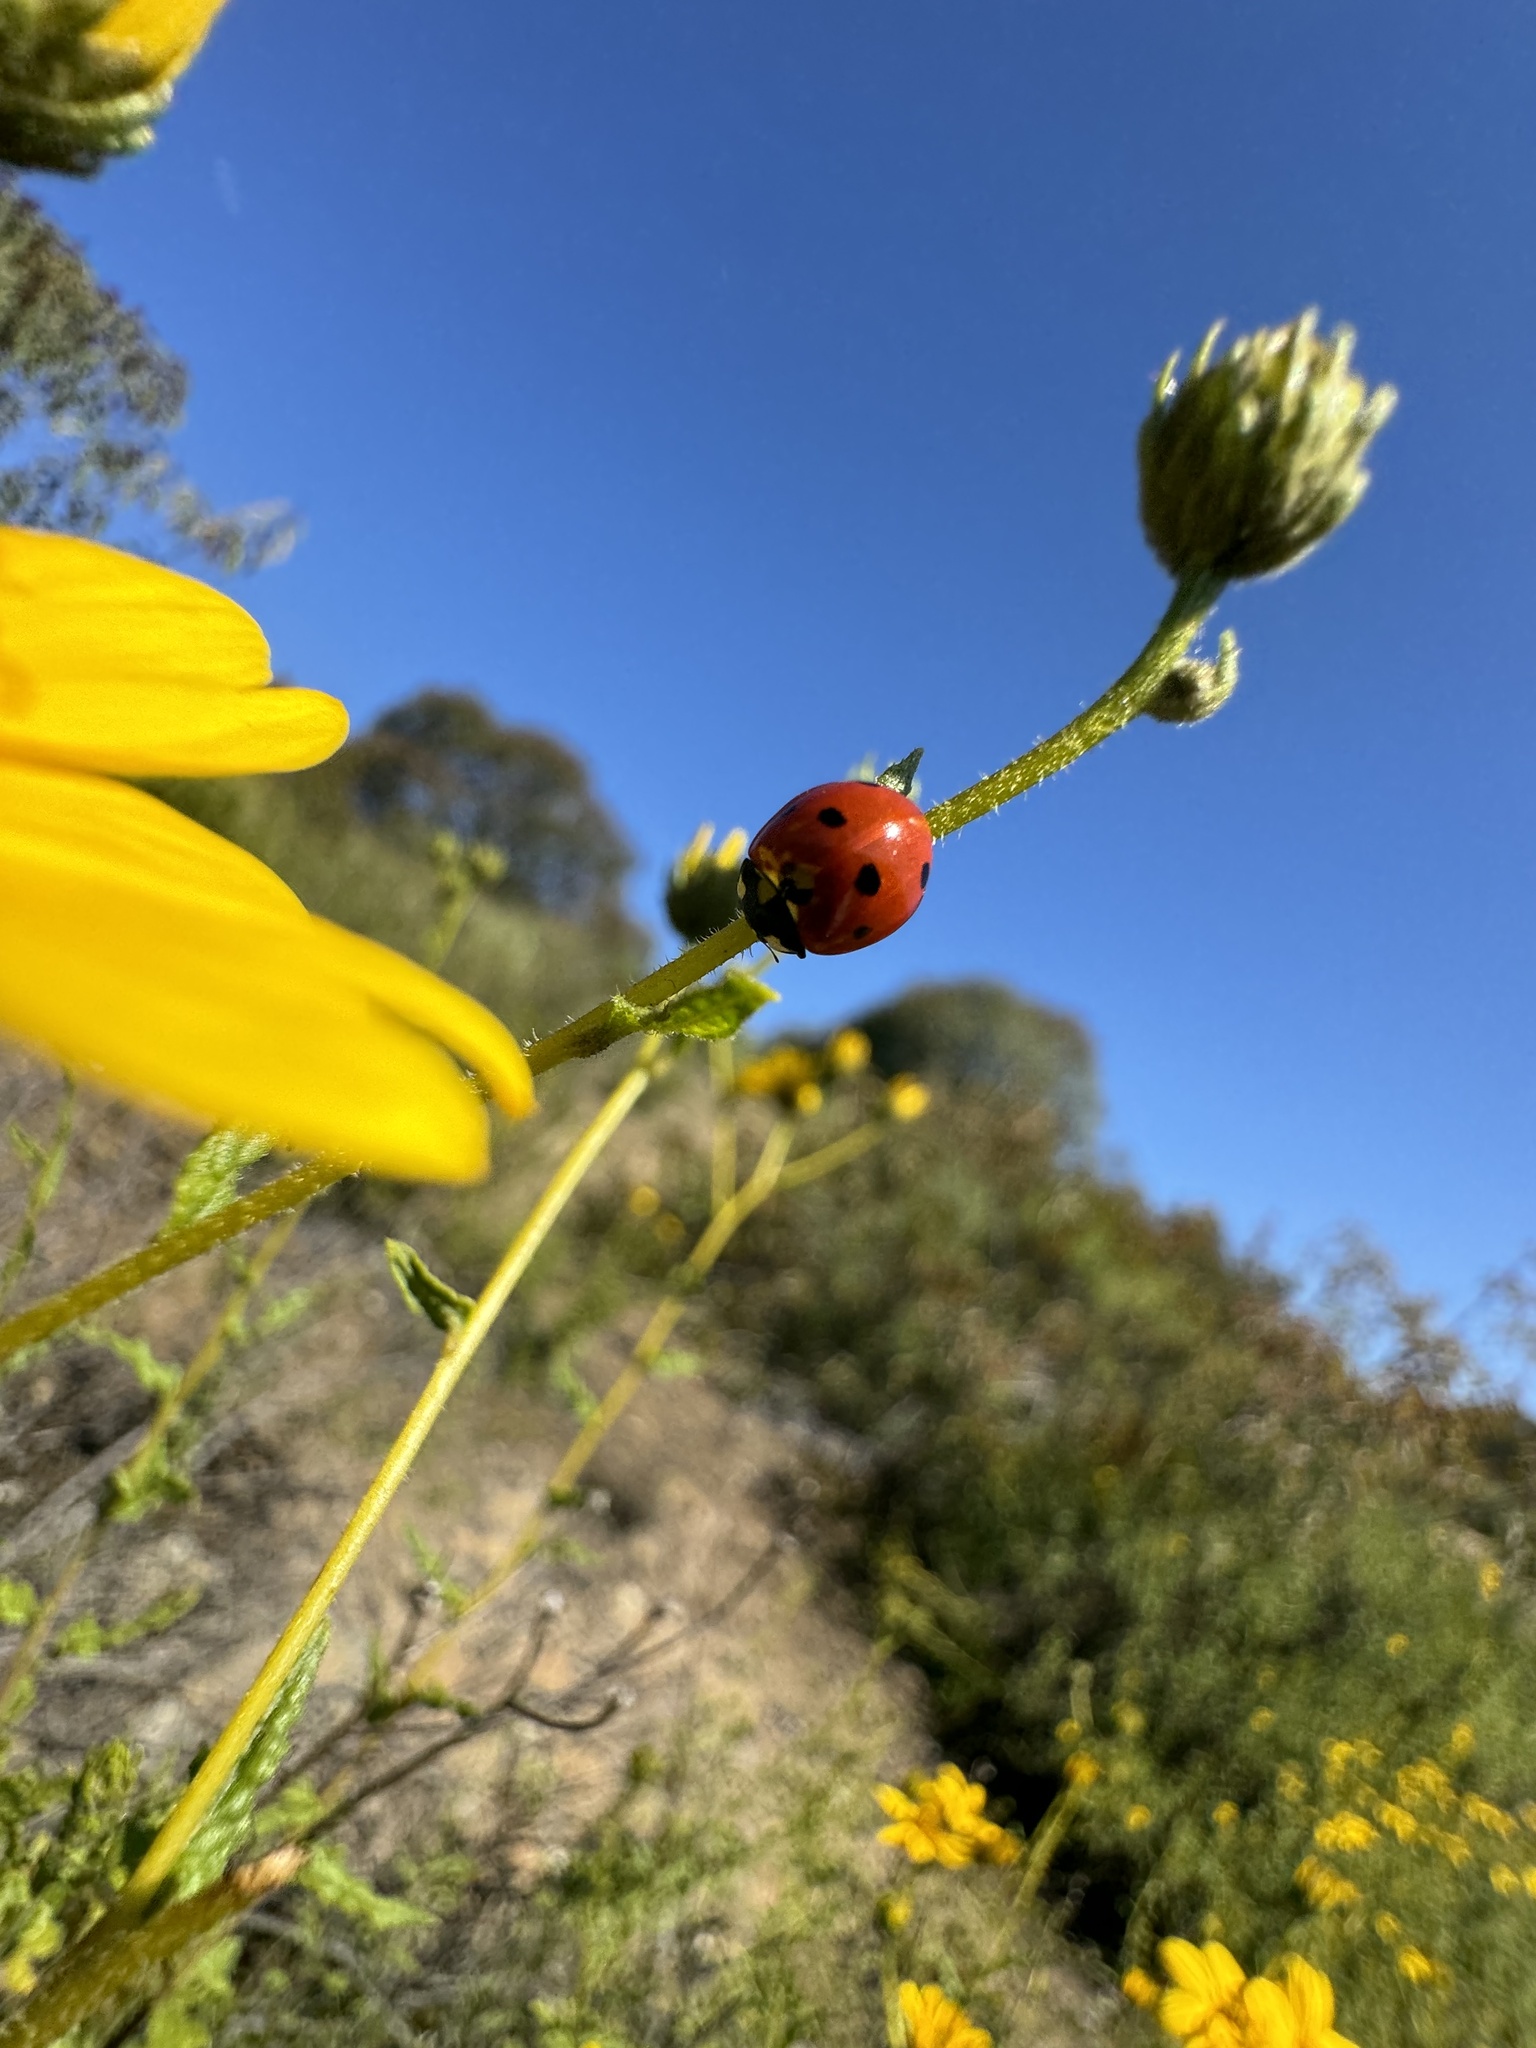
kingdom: Animalia
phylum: Arthropoda
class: Insecta
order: Coleoptera
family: Coccinellidae
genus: Coccinella
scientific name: Coccinella septempunctata
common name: Sevenspotted lady beetle
